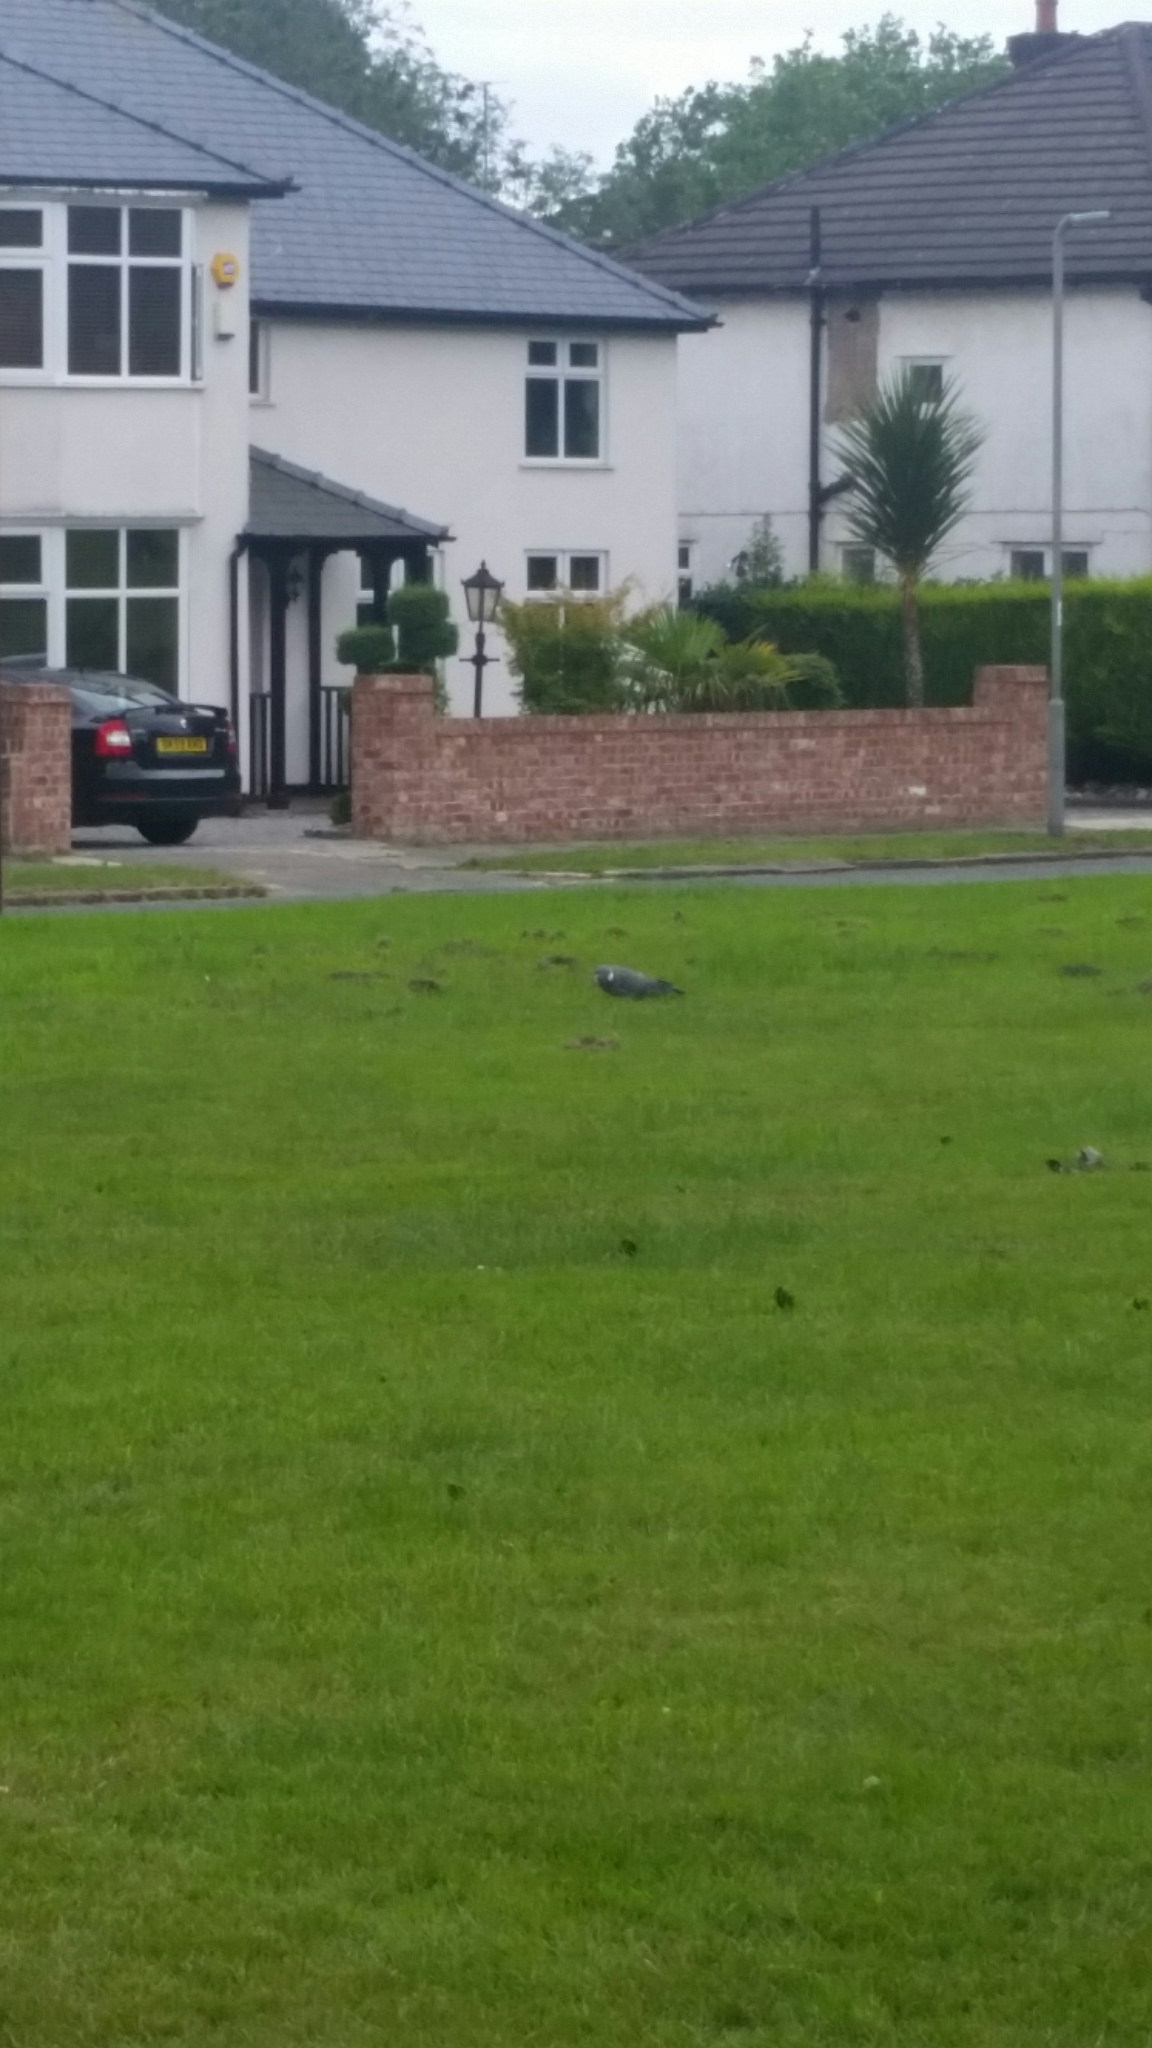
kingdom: Animalia
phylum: Chordata
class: Aves
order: Columbiformes
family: Columbidae
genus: Columba
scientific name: Columba palumbus
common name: Common wood pigeon
